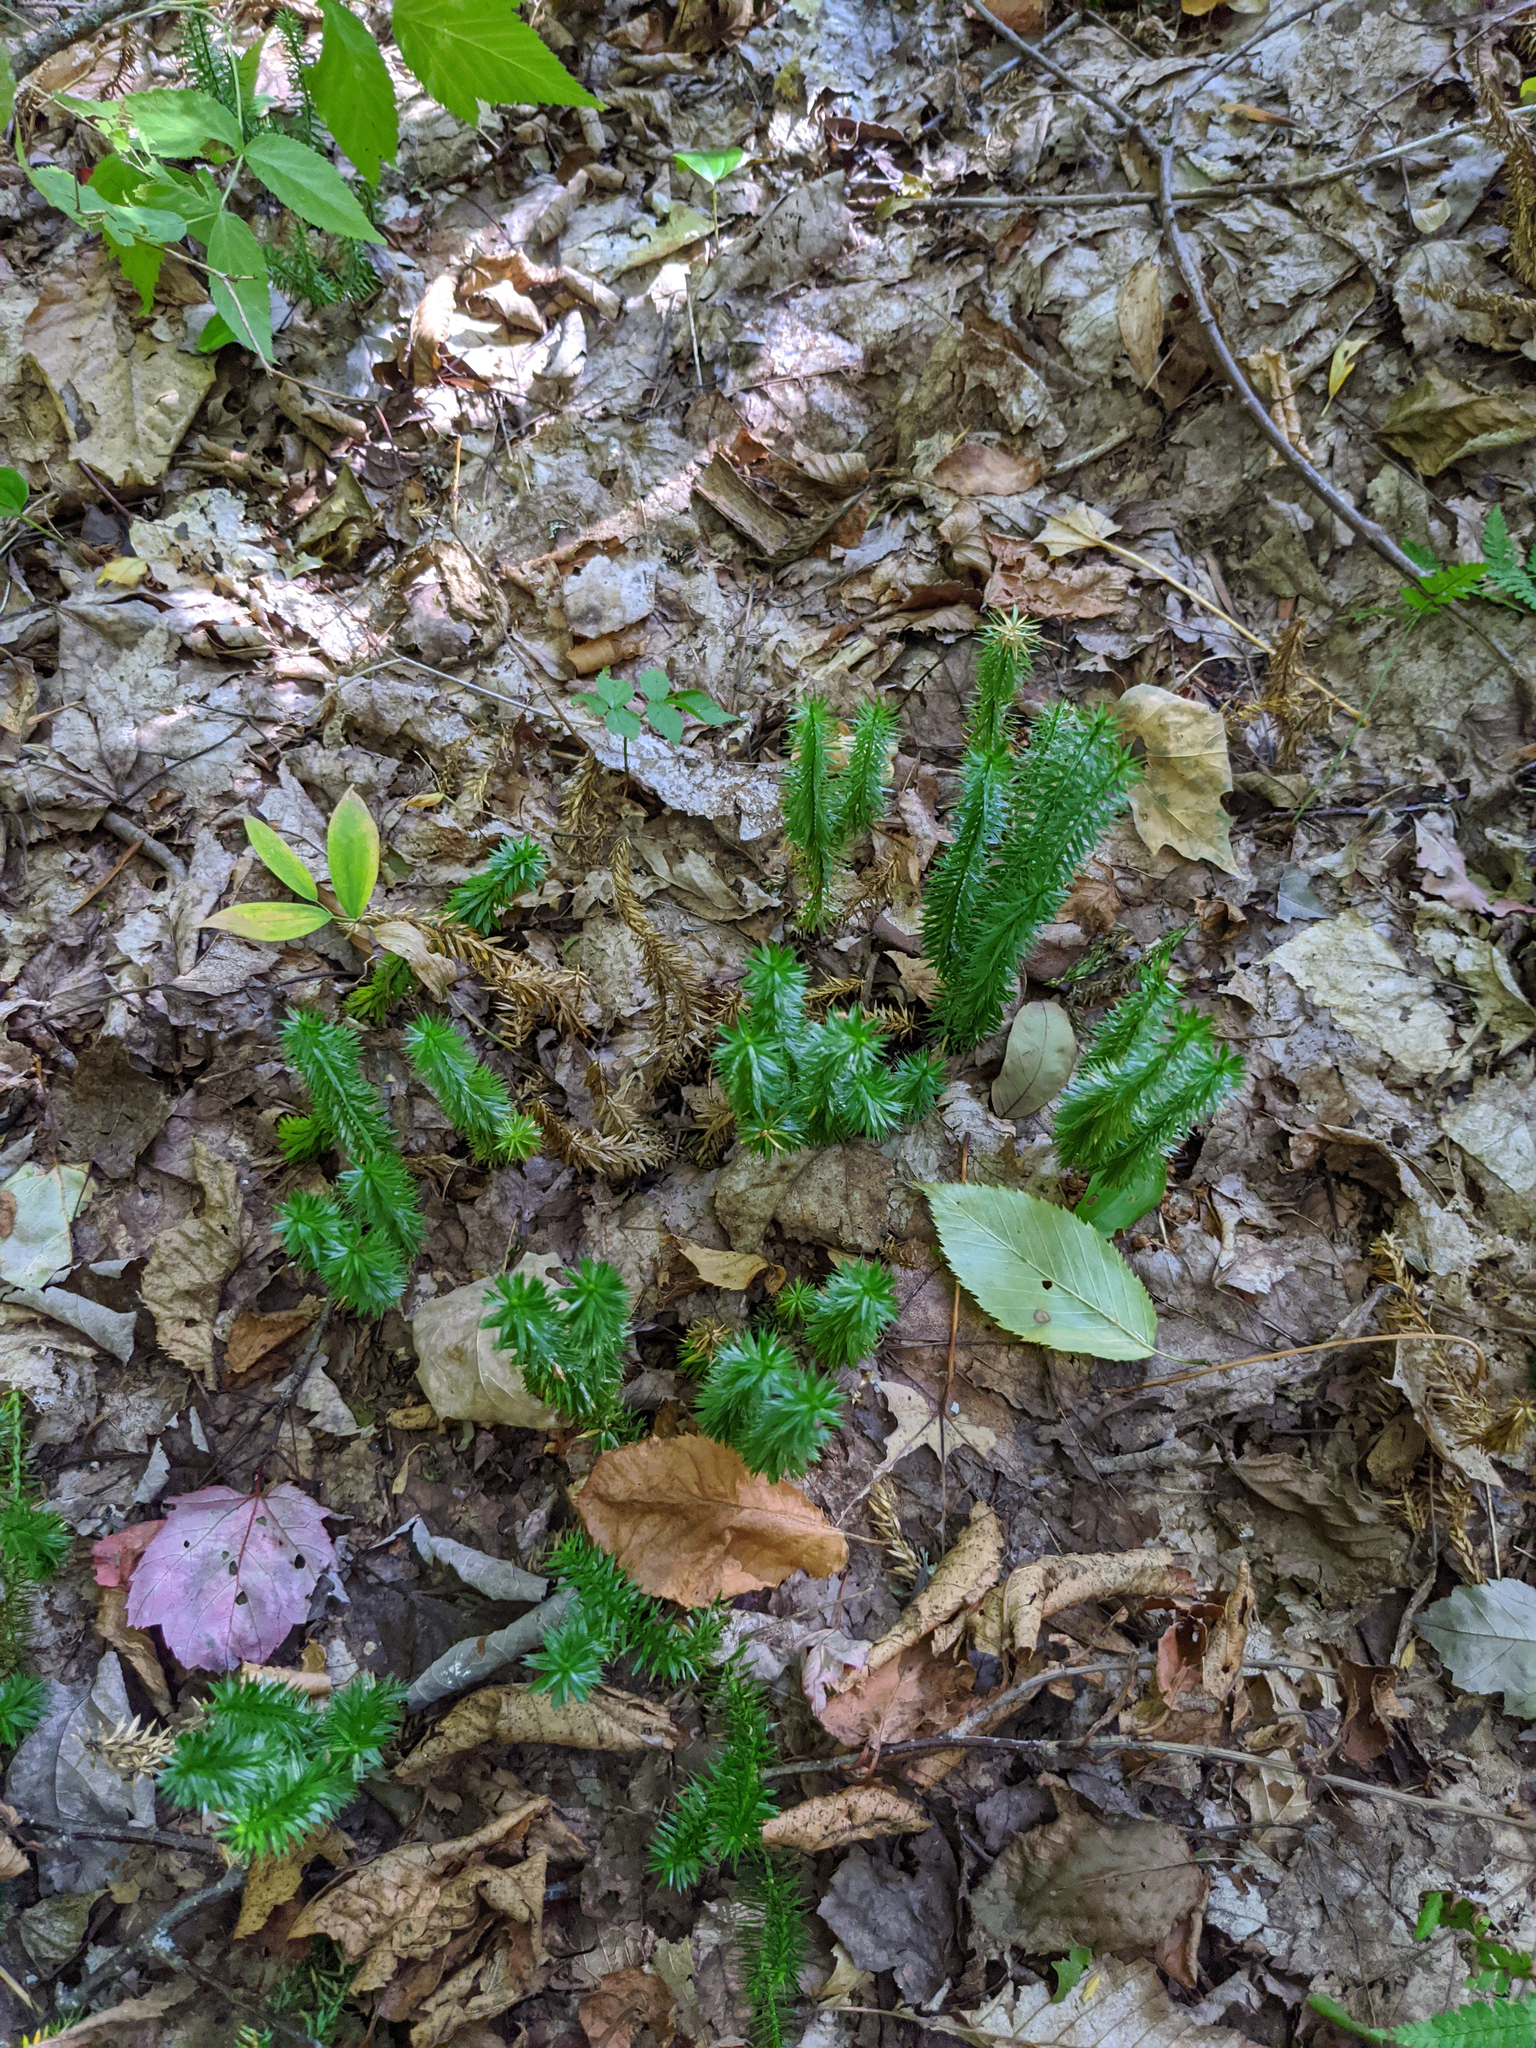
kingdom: Plantae
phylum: Tracheophyta
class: Lycopodiopsida
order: Lycopodiales
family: Lycopodiaceae
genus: Spinulum
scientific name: Spinulum annotinum
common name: Interrupted club-moss
